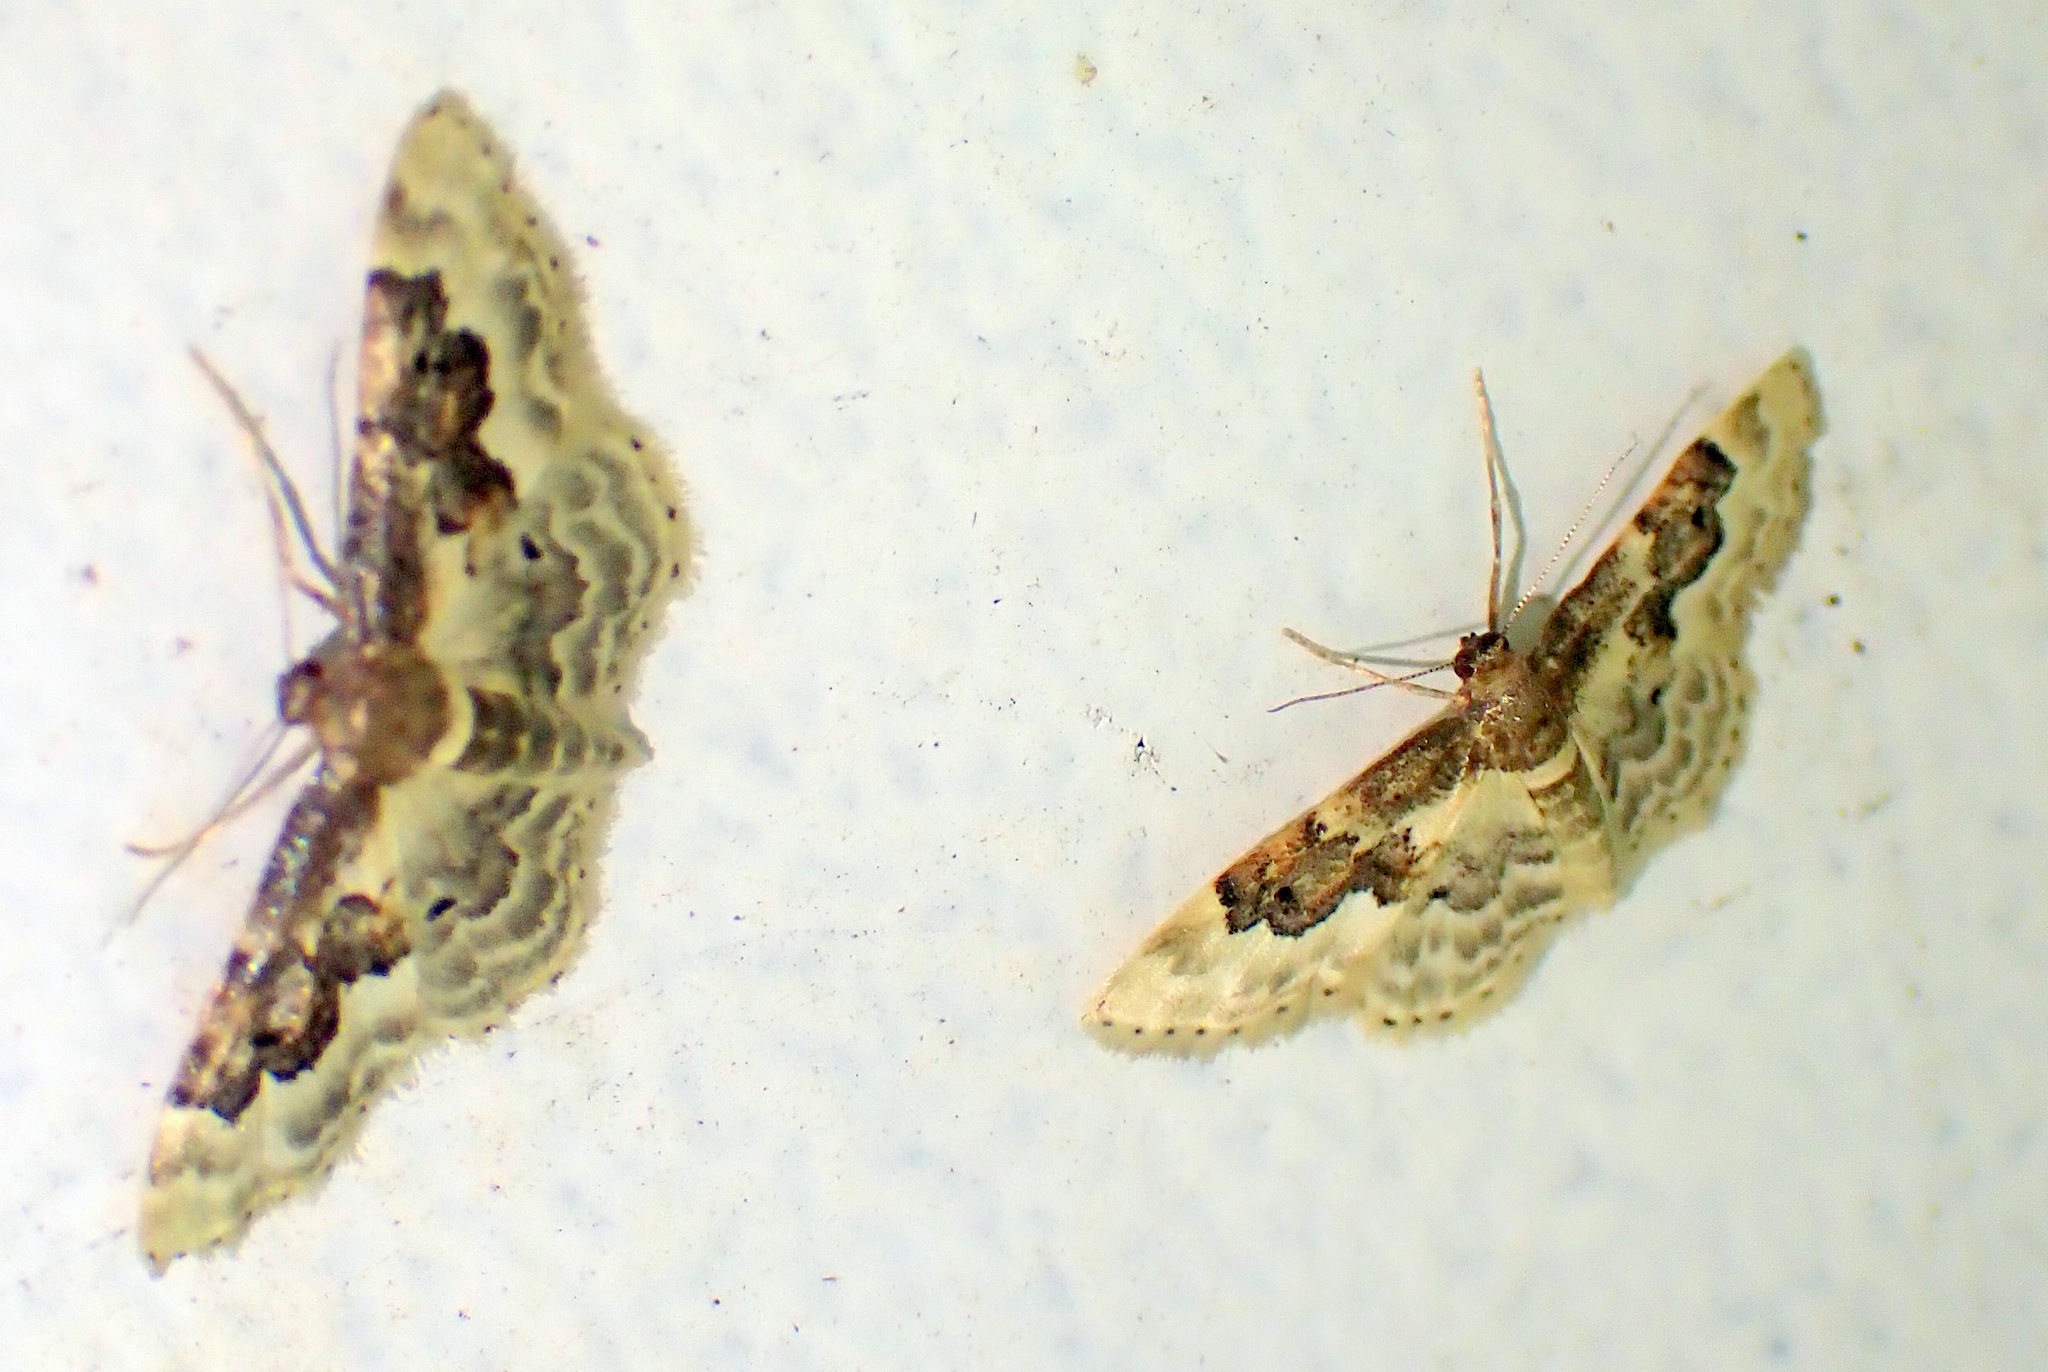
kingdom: Animalia
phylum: Arthropoda
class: Insecta
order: Lepidoptera
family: Geometridae
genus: Idaea
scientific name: Idaea rusticata
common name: Least carpet
